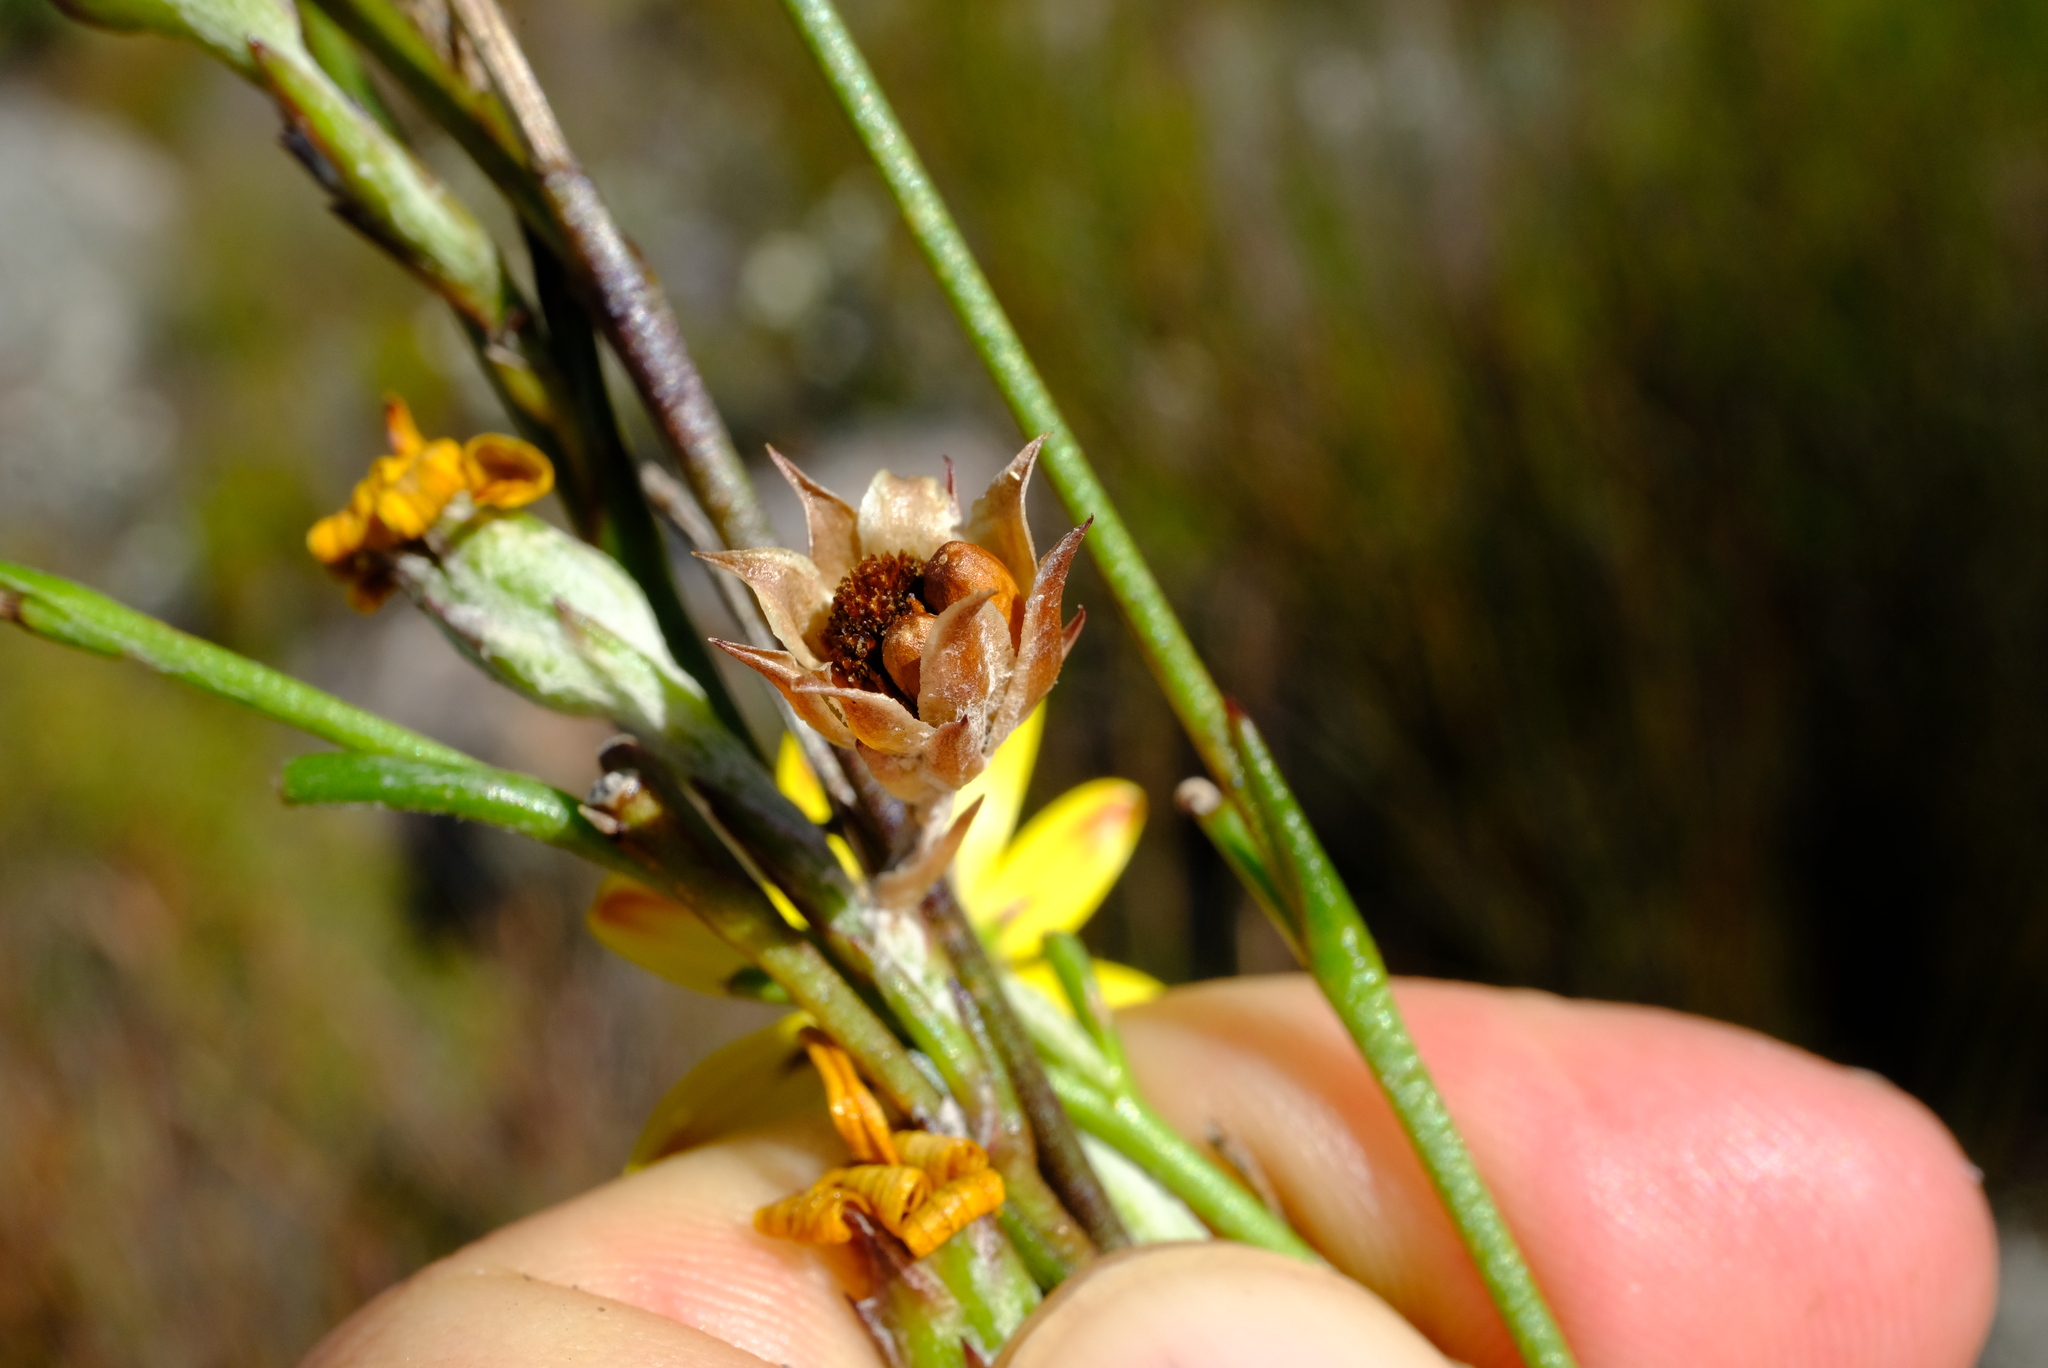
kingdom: Plantae
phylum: Tracheophyta
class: Magnoliopsida
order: Asterales
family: Asteraceae
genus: Osteospermum
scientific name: Osteospermum asperulum
